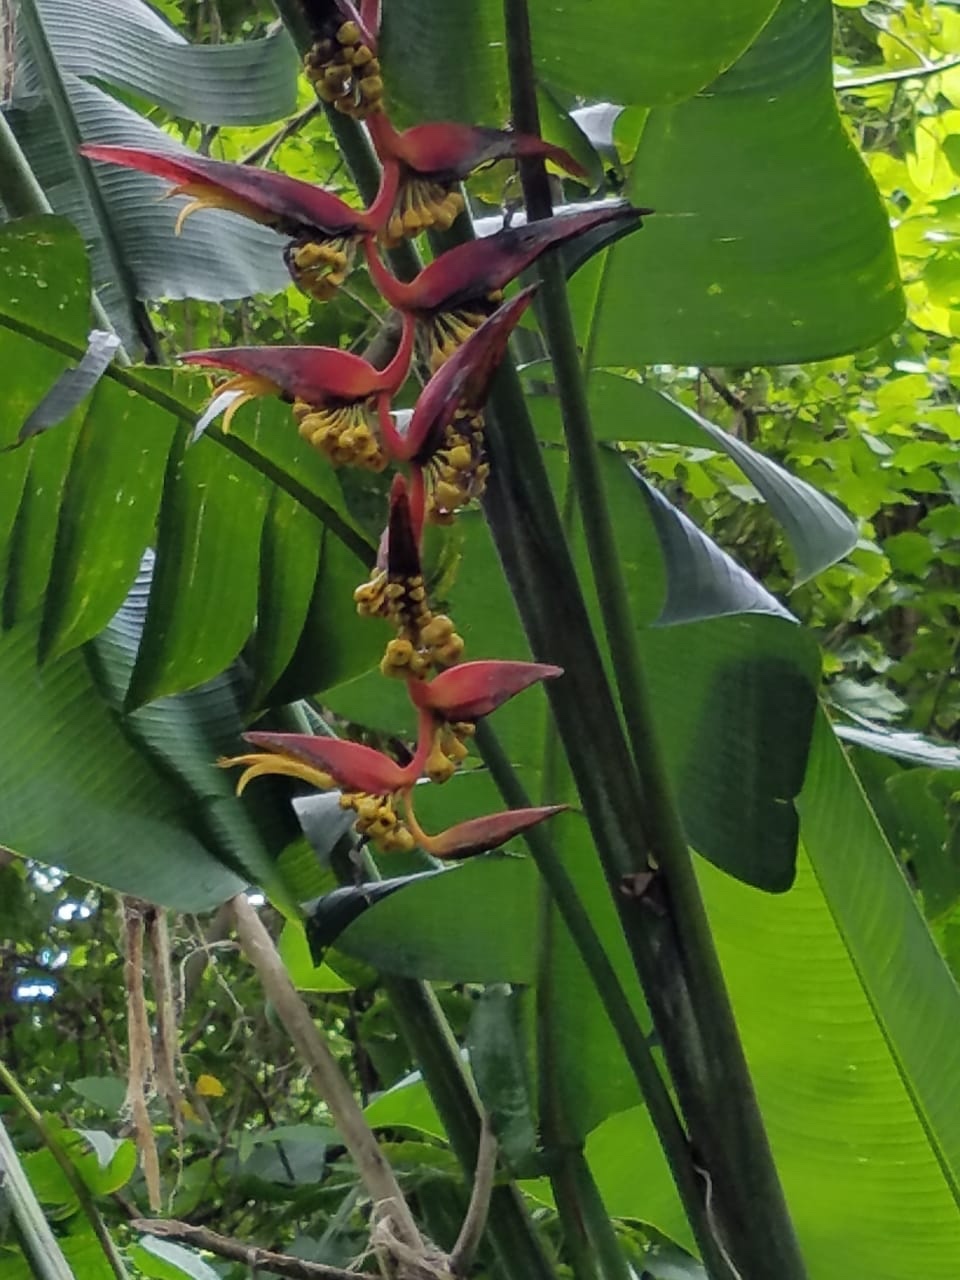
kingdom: Plantae
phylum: Tracheophyta
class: Liliopsida
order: Zingiberales
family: Heliconiaceae
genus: Heliconia
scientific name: Heliconia collinsiana
